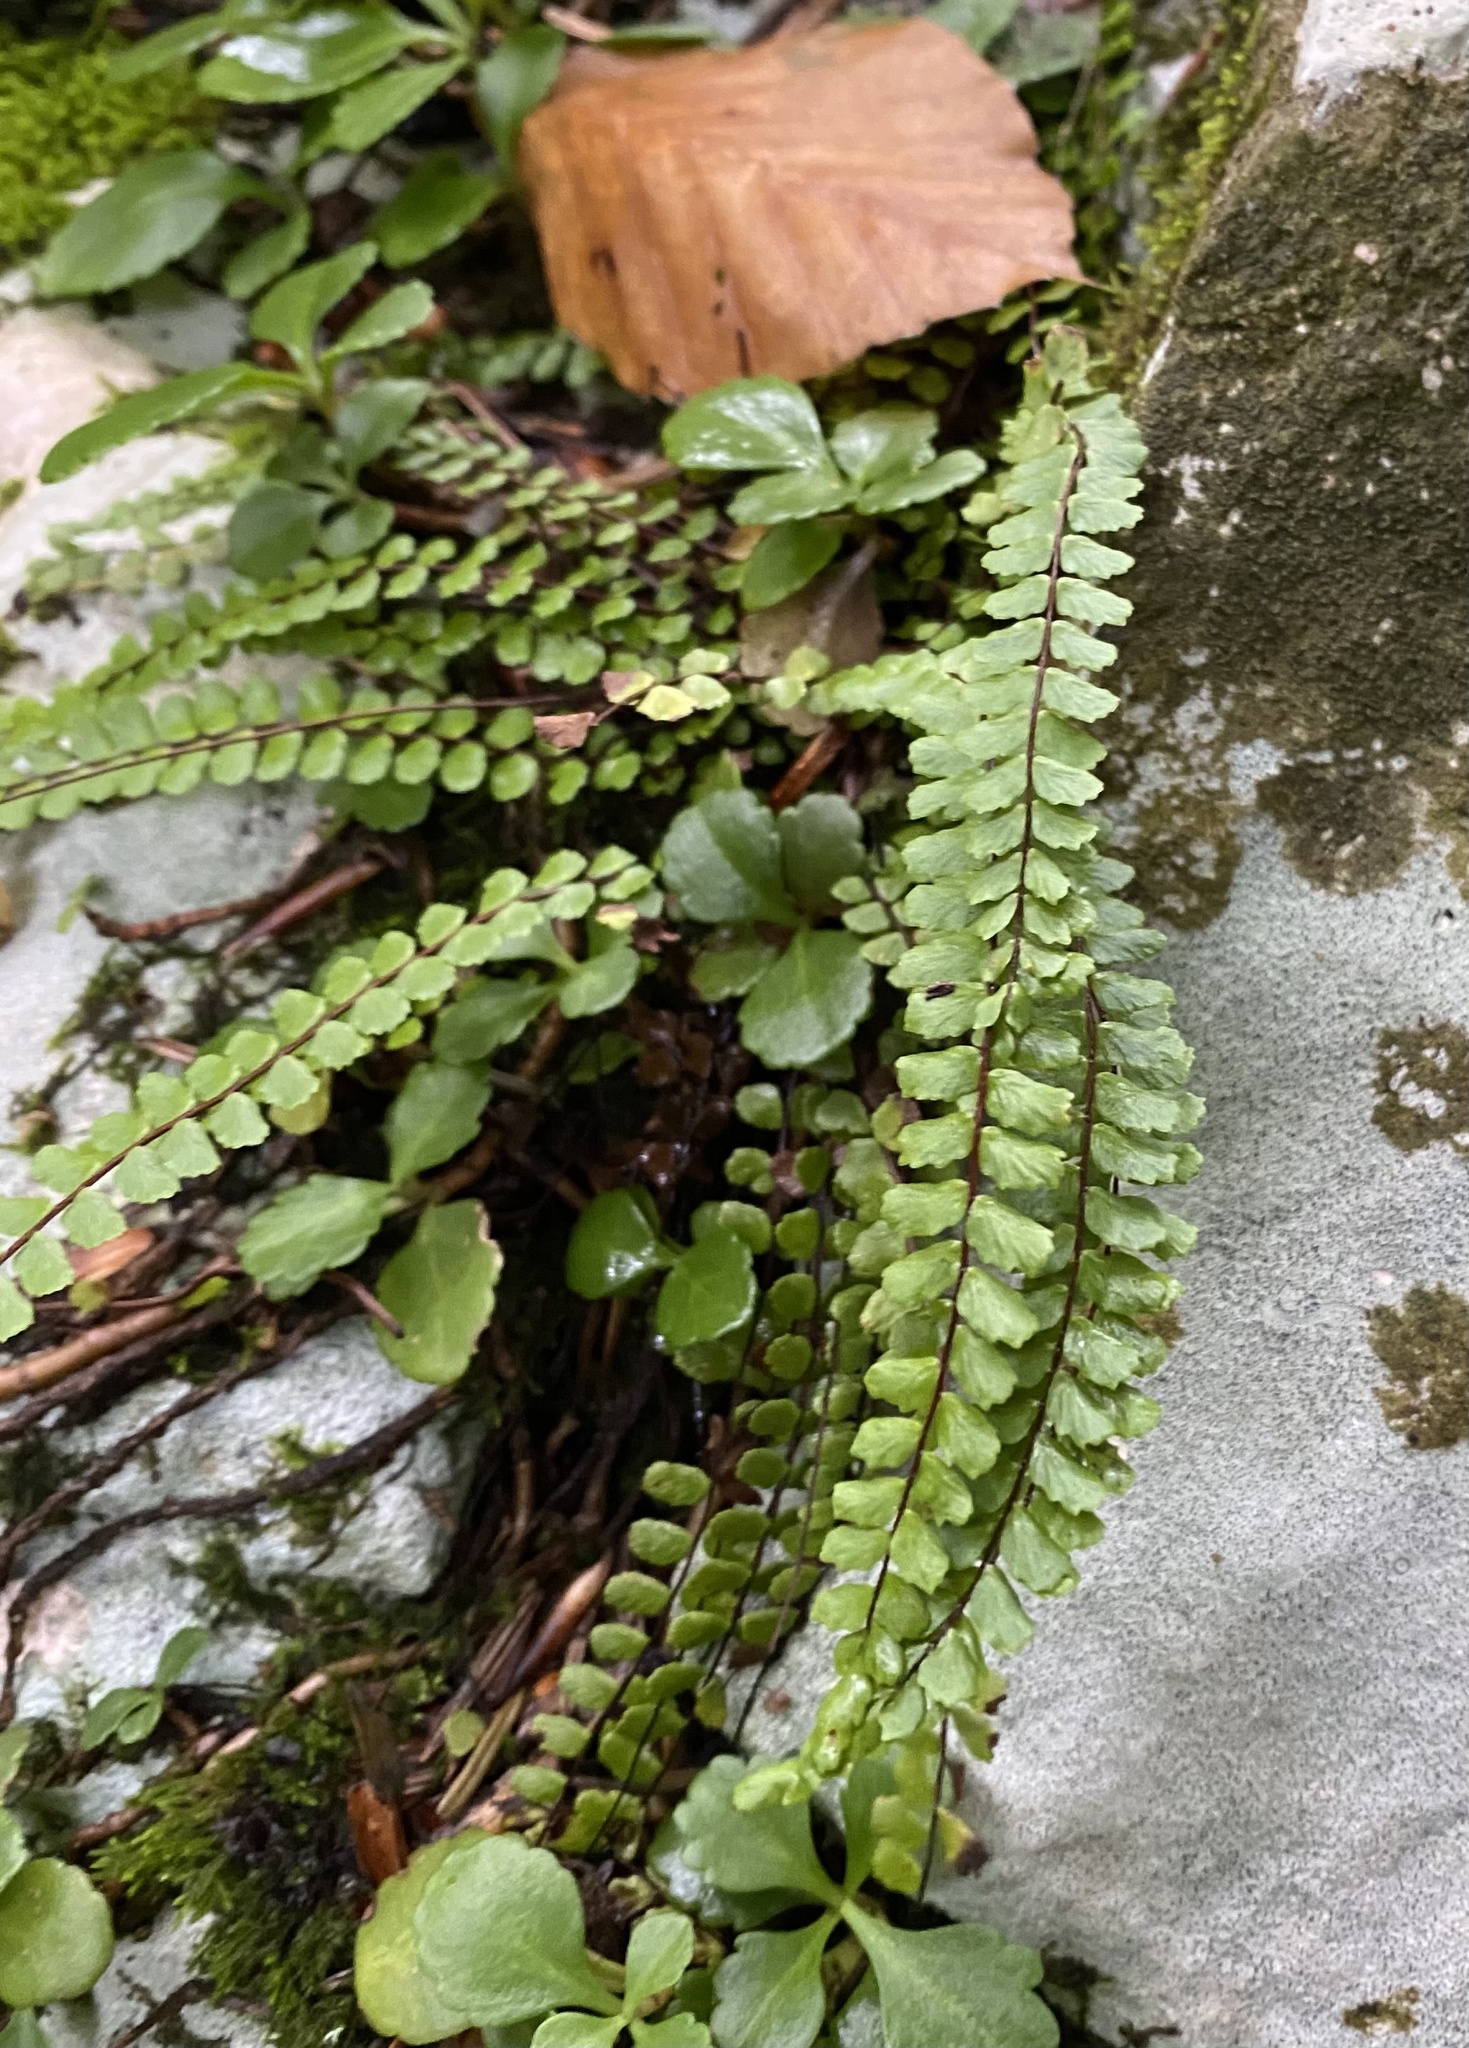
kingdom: Plantae
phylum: Tracheophyta
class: Polypodiopsida
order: Polypodiales
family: Aspleniaceae
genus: Asplenium
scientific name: Asplenium trichomanes
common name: Maidenhair spleenwort
